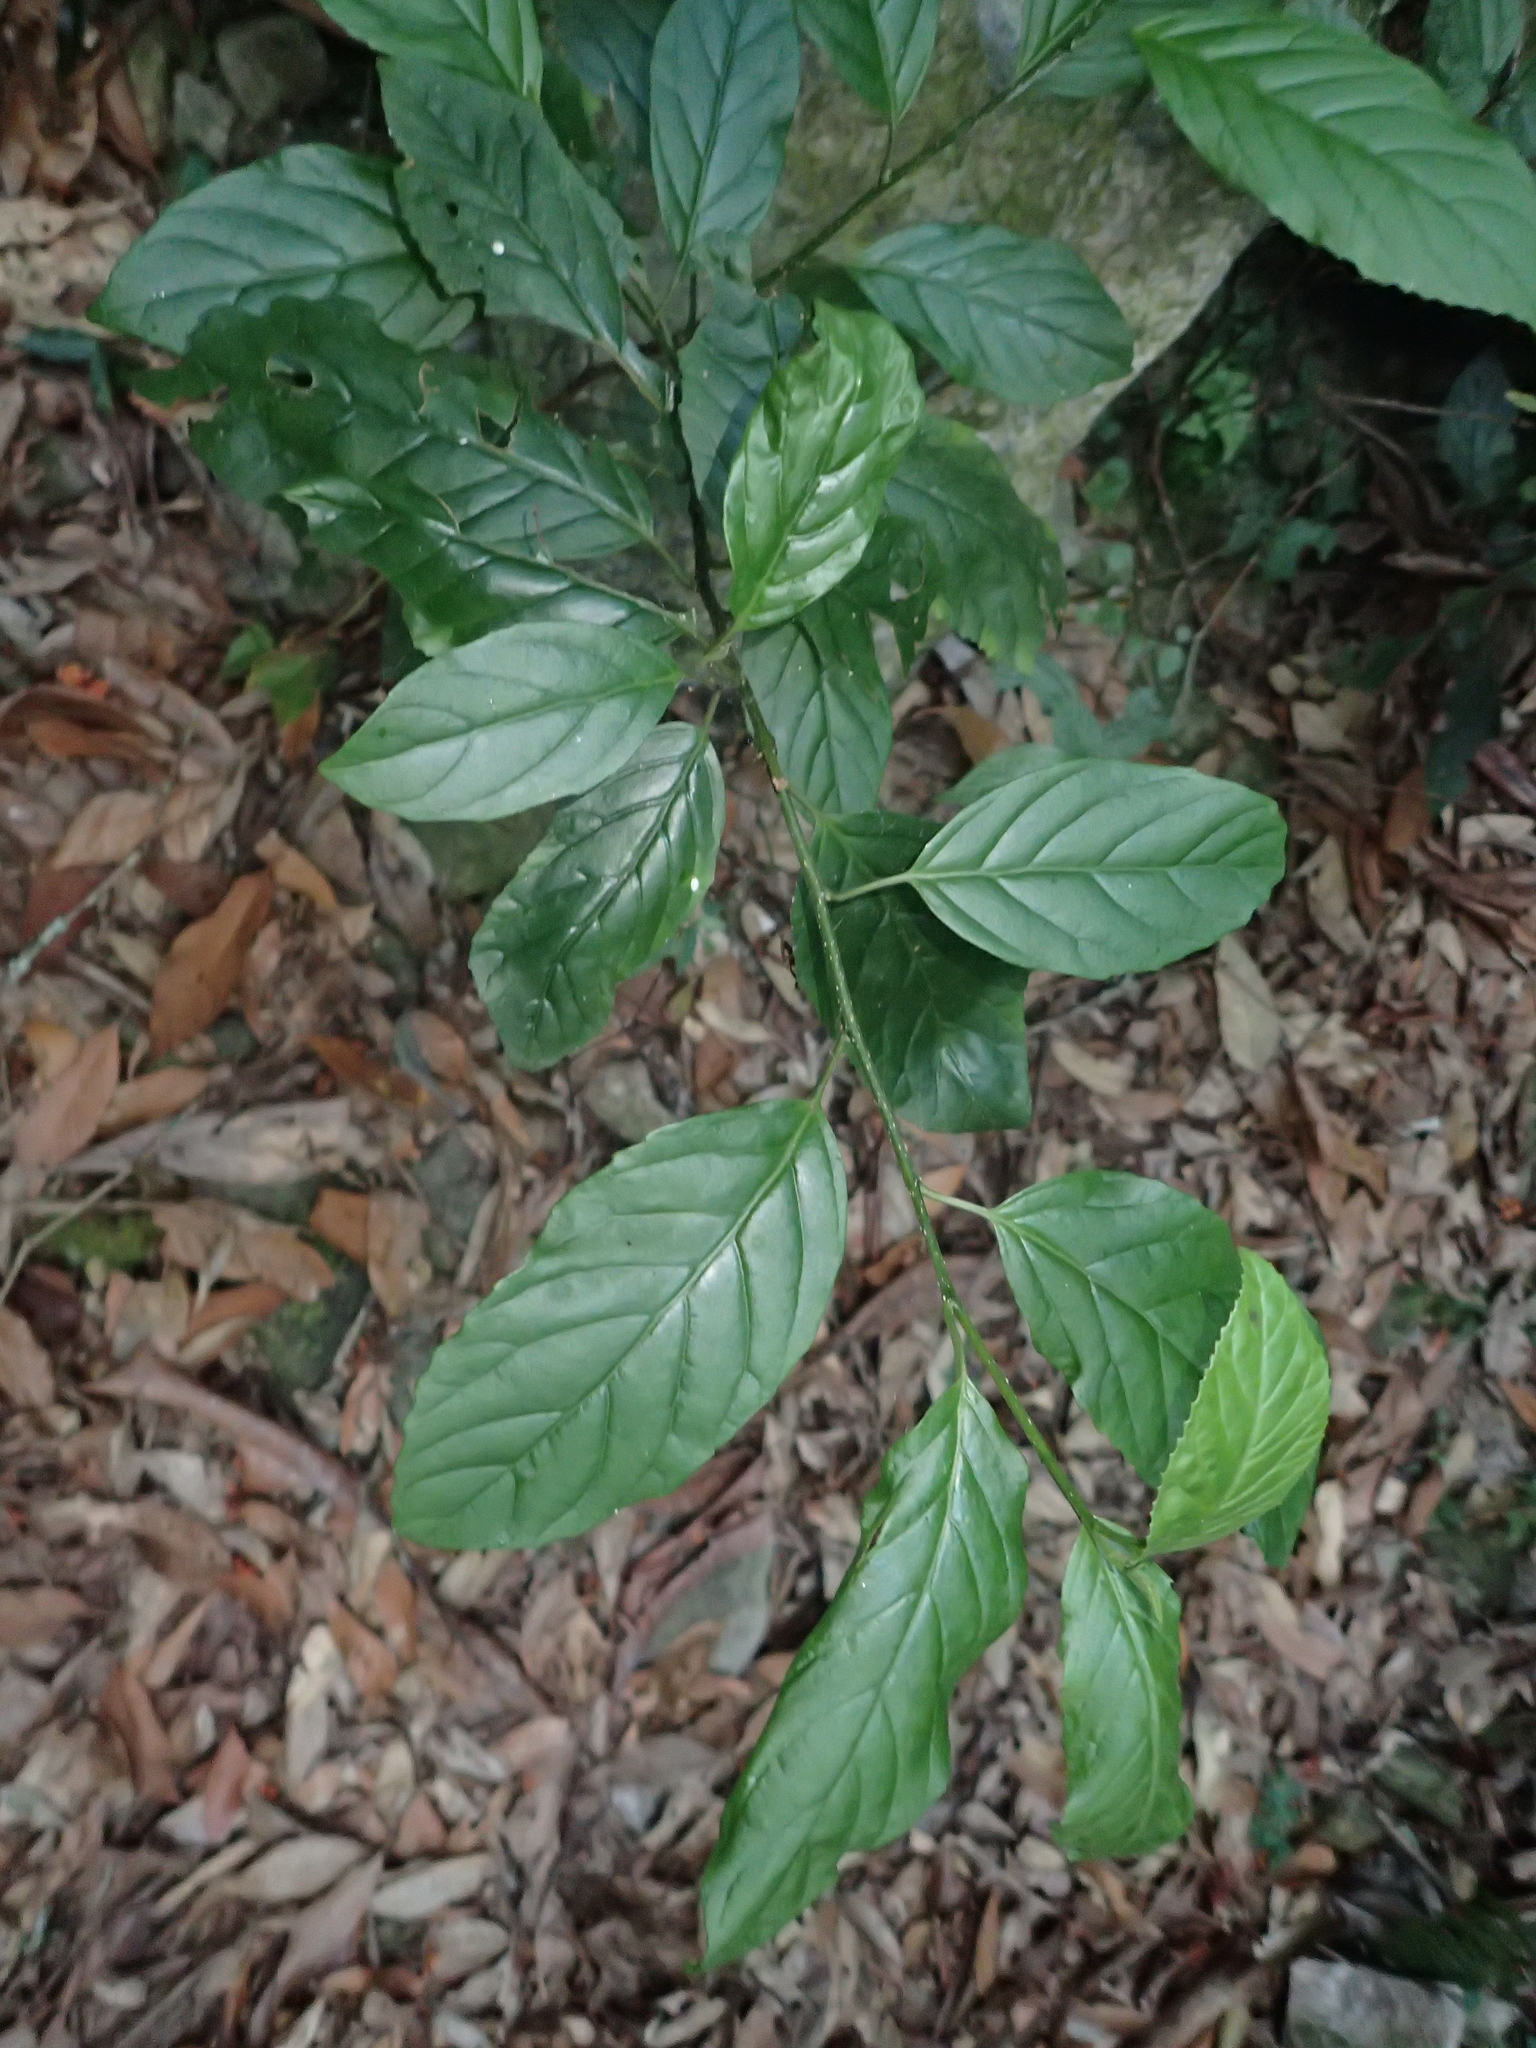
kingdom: Plantae
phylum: Tracheophyta
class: Magnoliopsida
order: Ericales
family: Primulaceae
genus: Maesa
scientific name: Maesa perlaria
